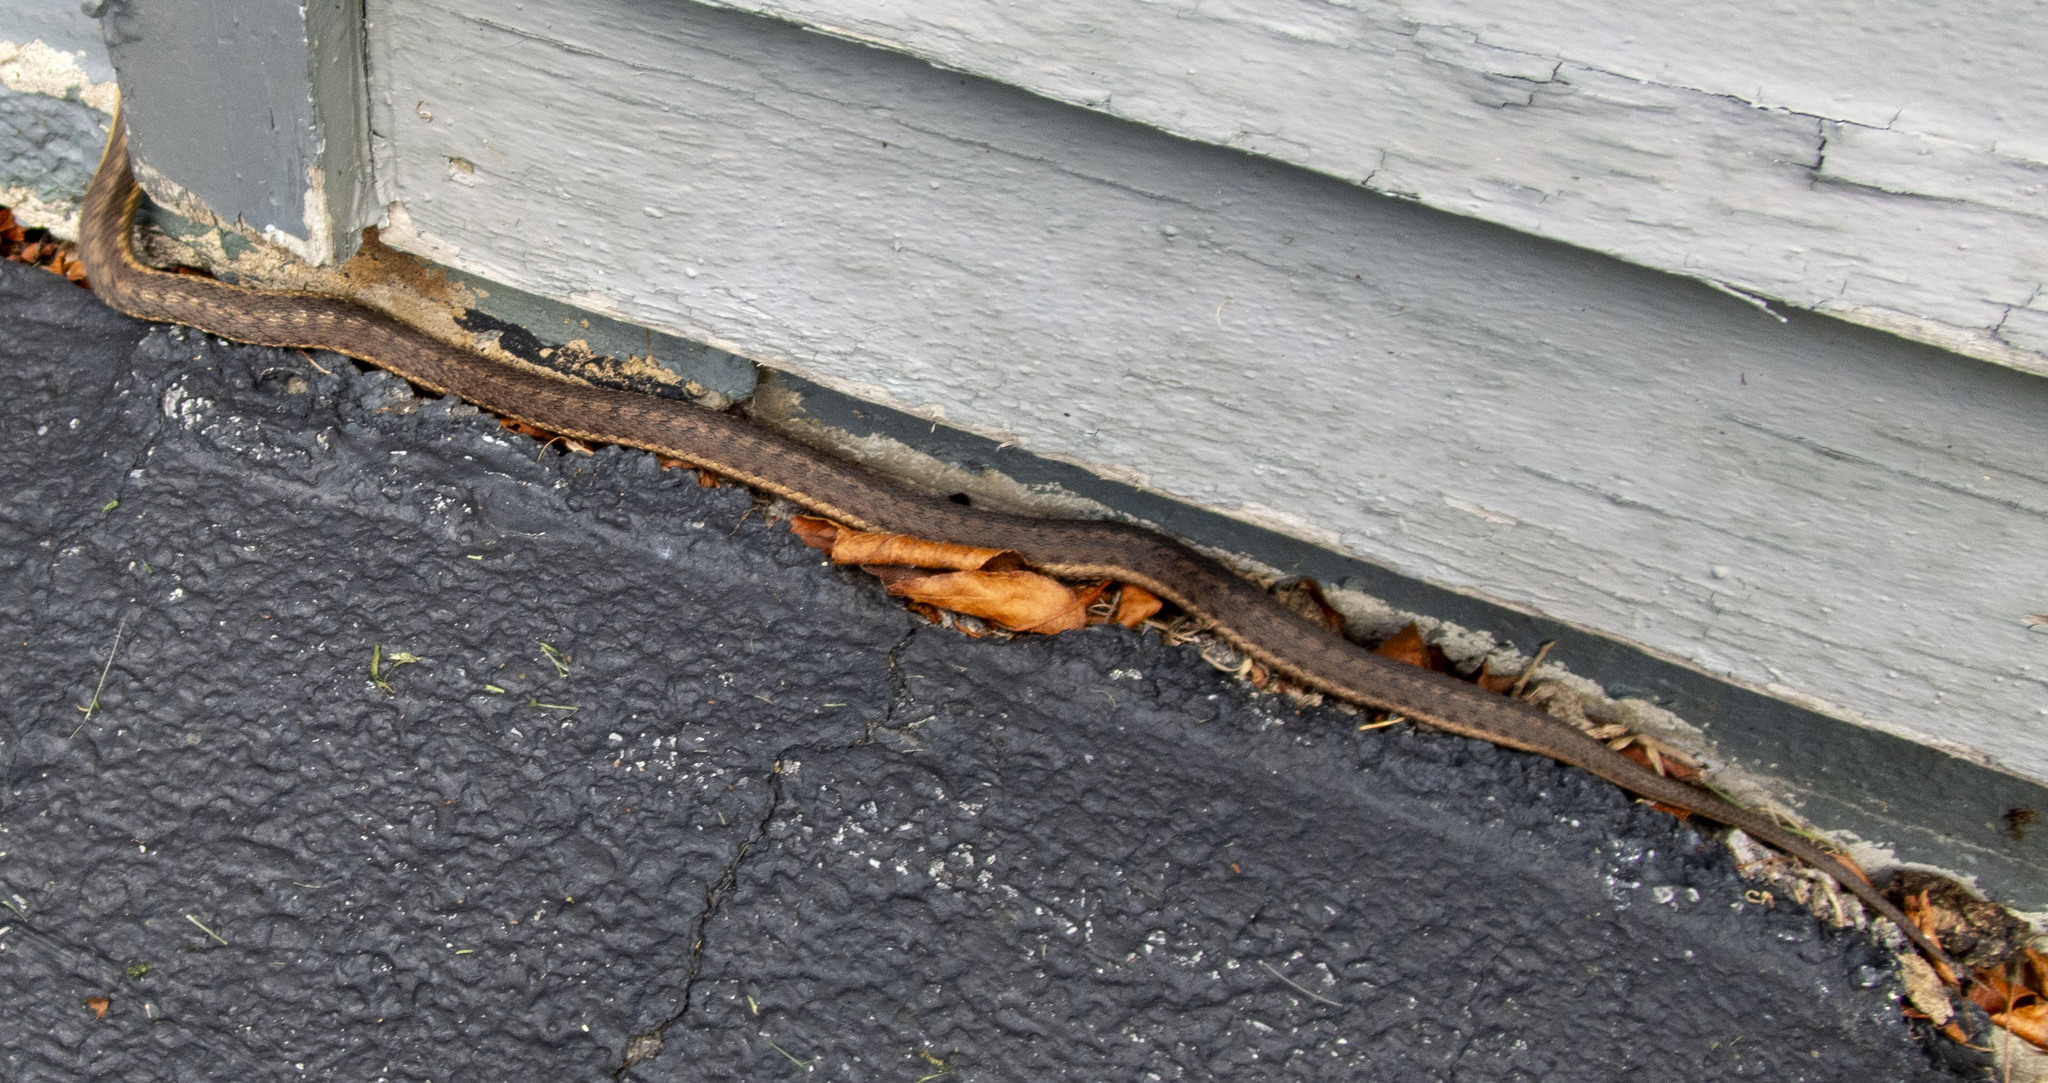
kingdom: Animalia
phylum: Chordata
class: Squamata
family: Colubridae
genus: Thamnophis
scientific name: Thamnophis sirtalis
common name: Common garter snake
